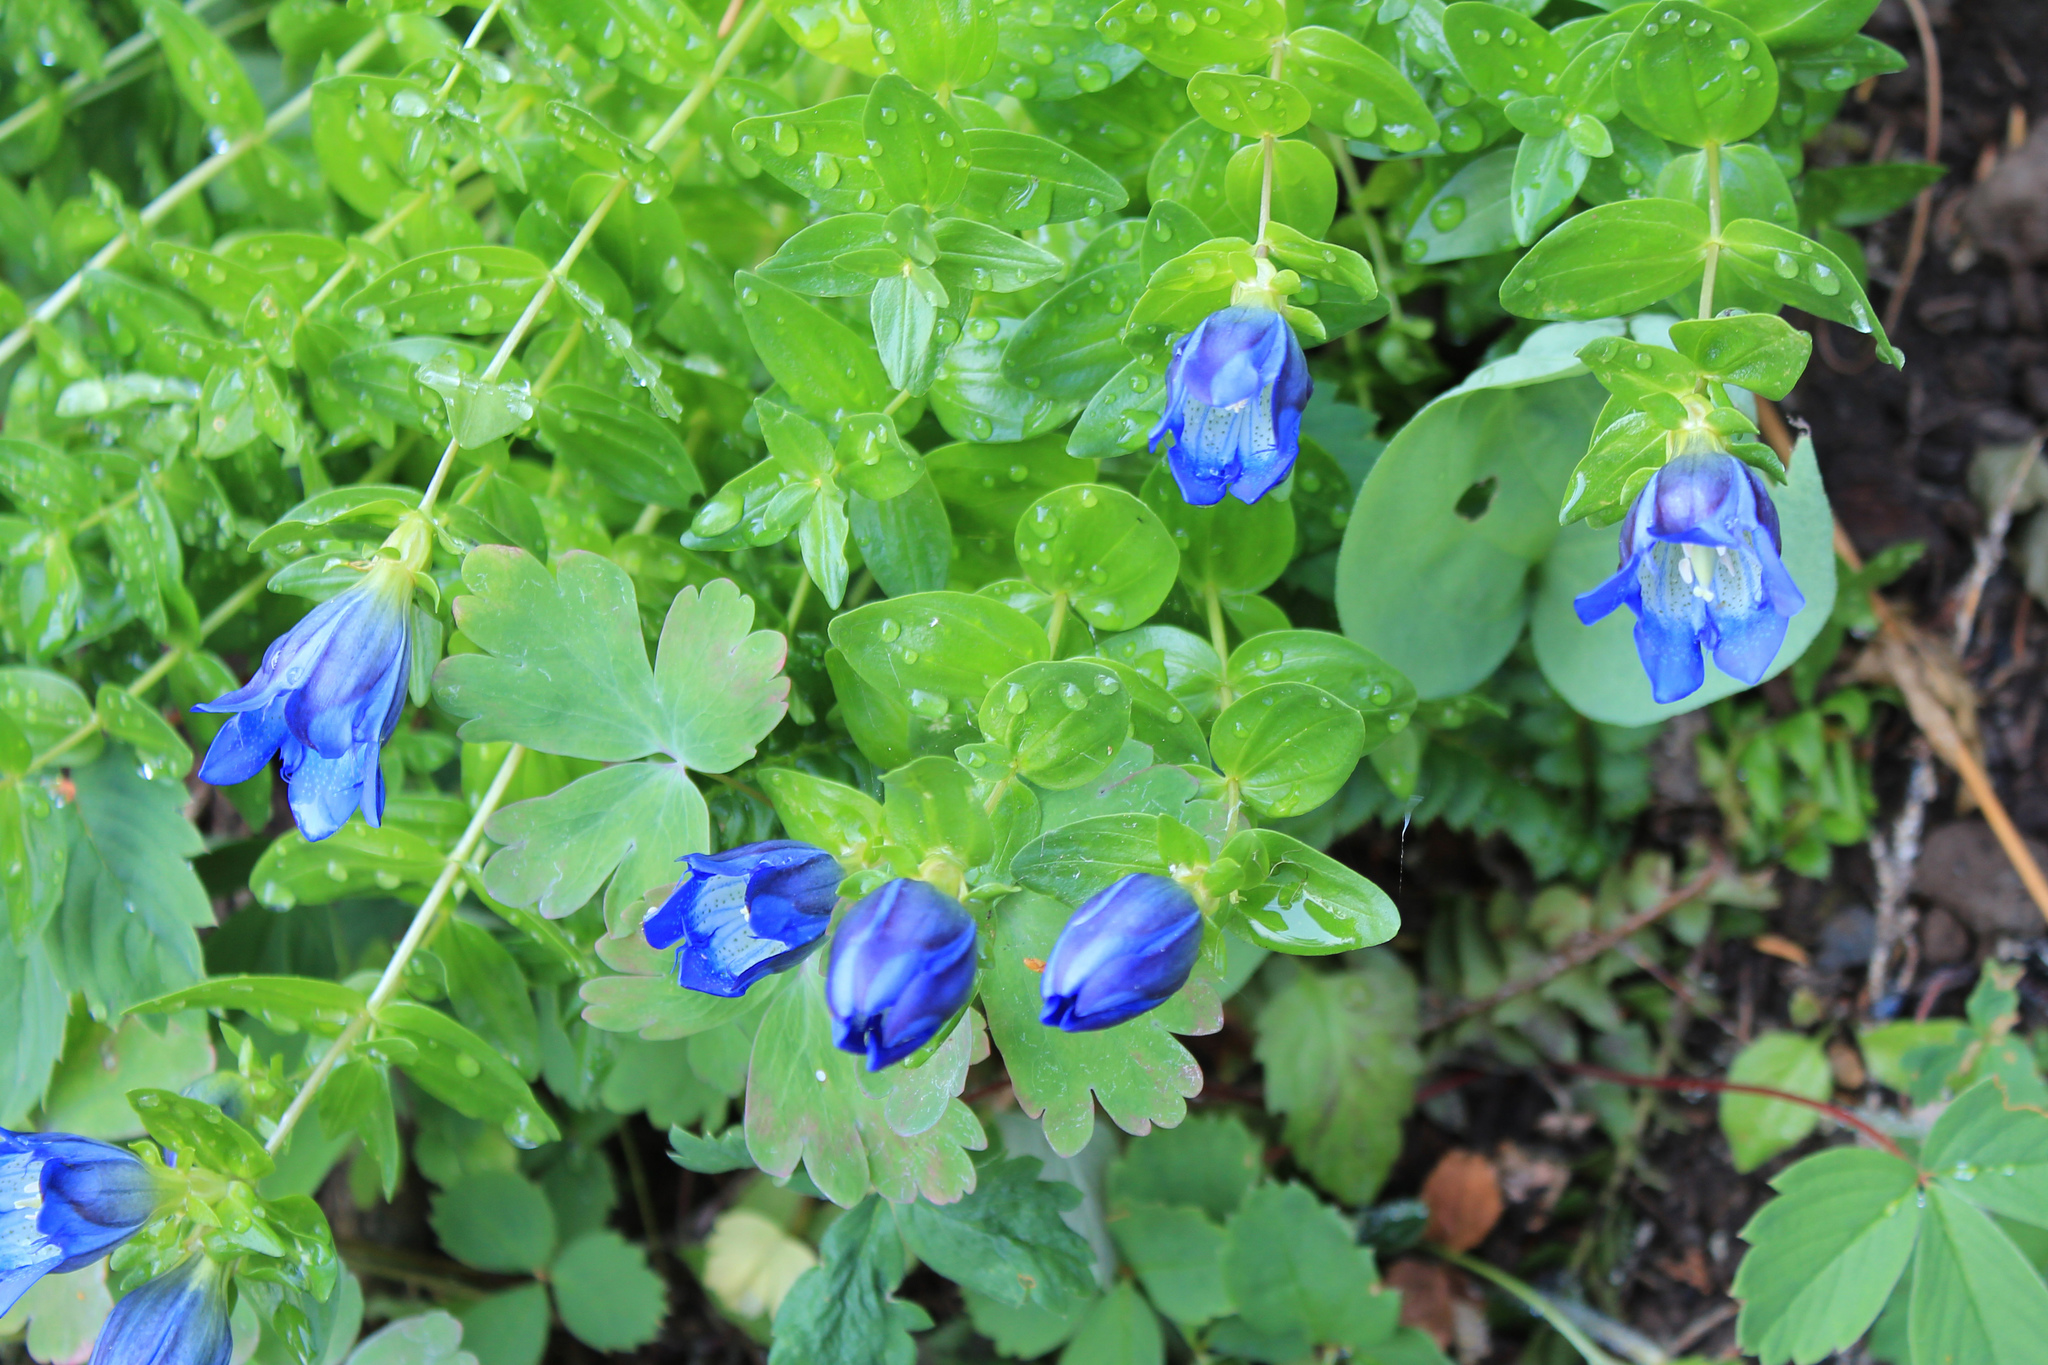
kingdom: Plantae
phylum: Tracheophyta
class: Magnoliopsida
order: Gentianales
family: Gentianaceae
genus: Gentiana
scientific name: Gentiana calycosa
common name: Rainier pleated gentian
